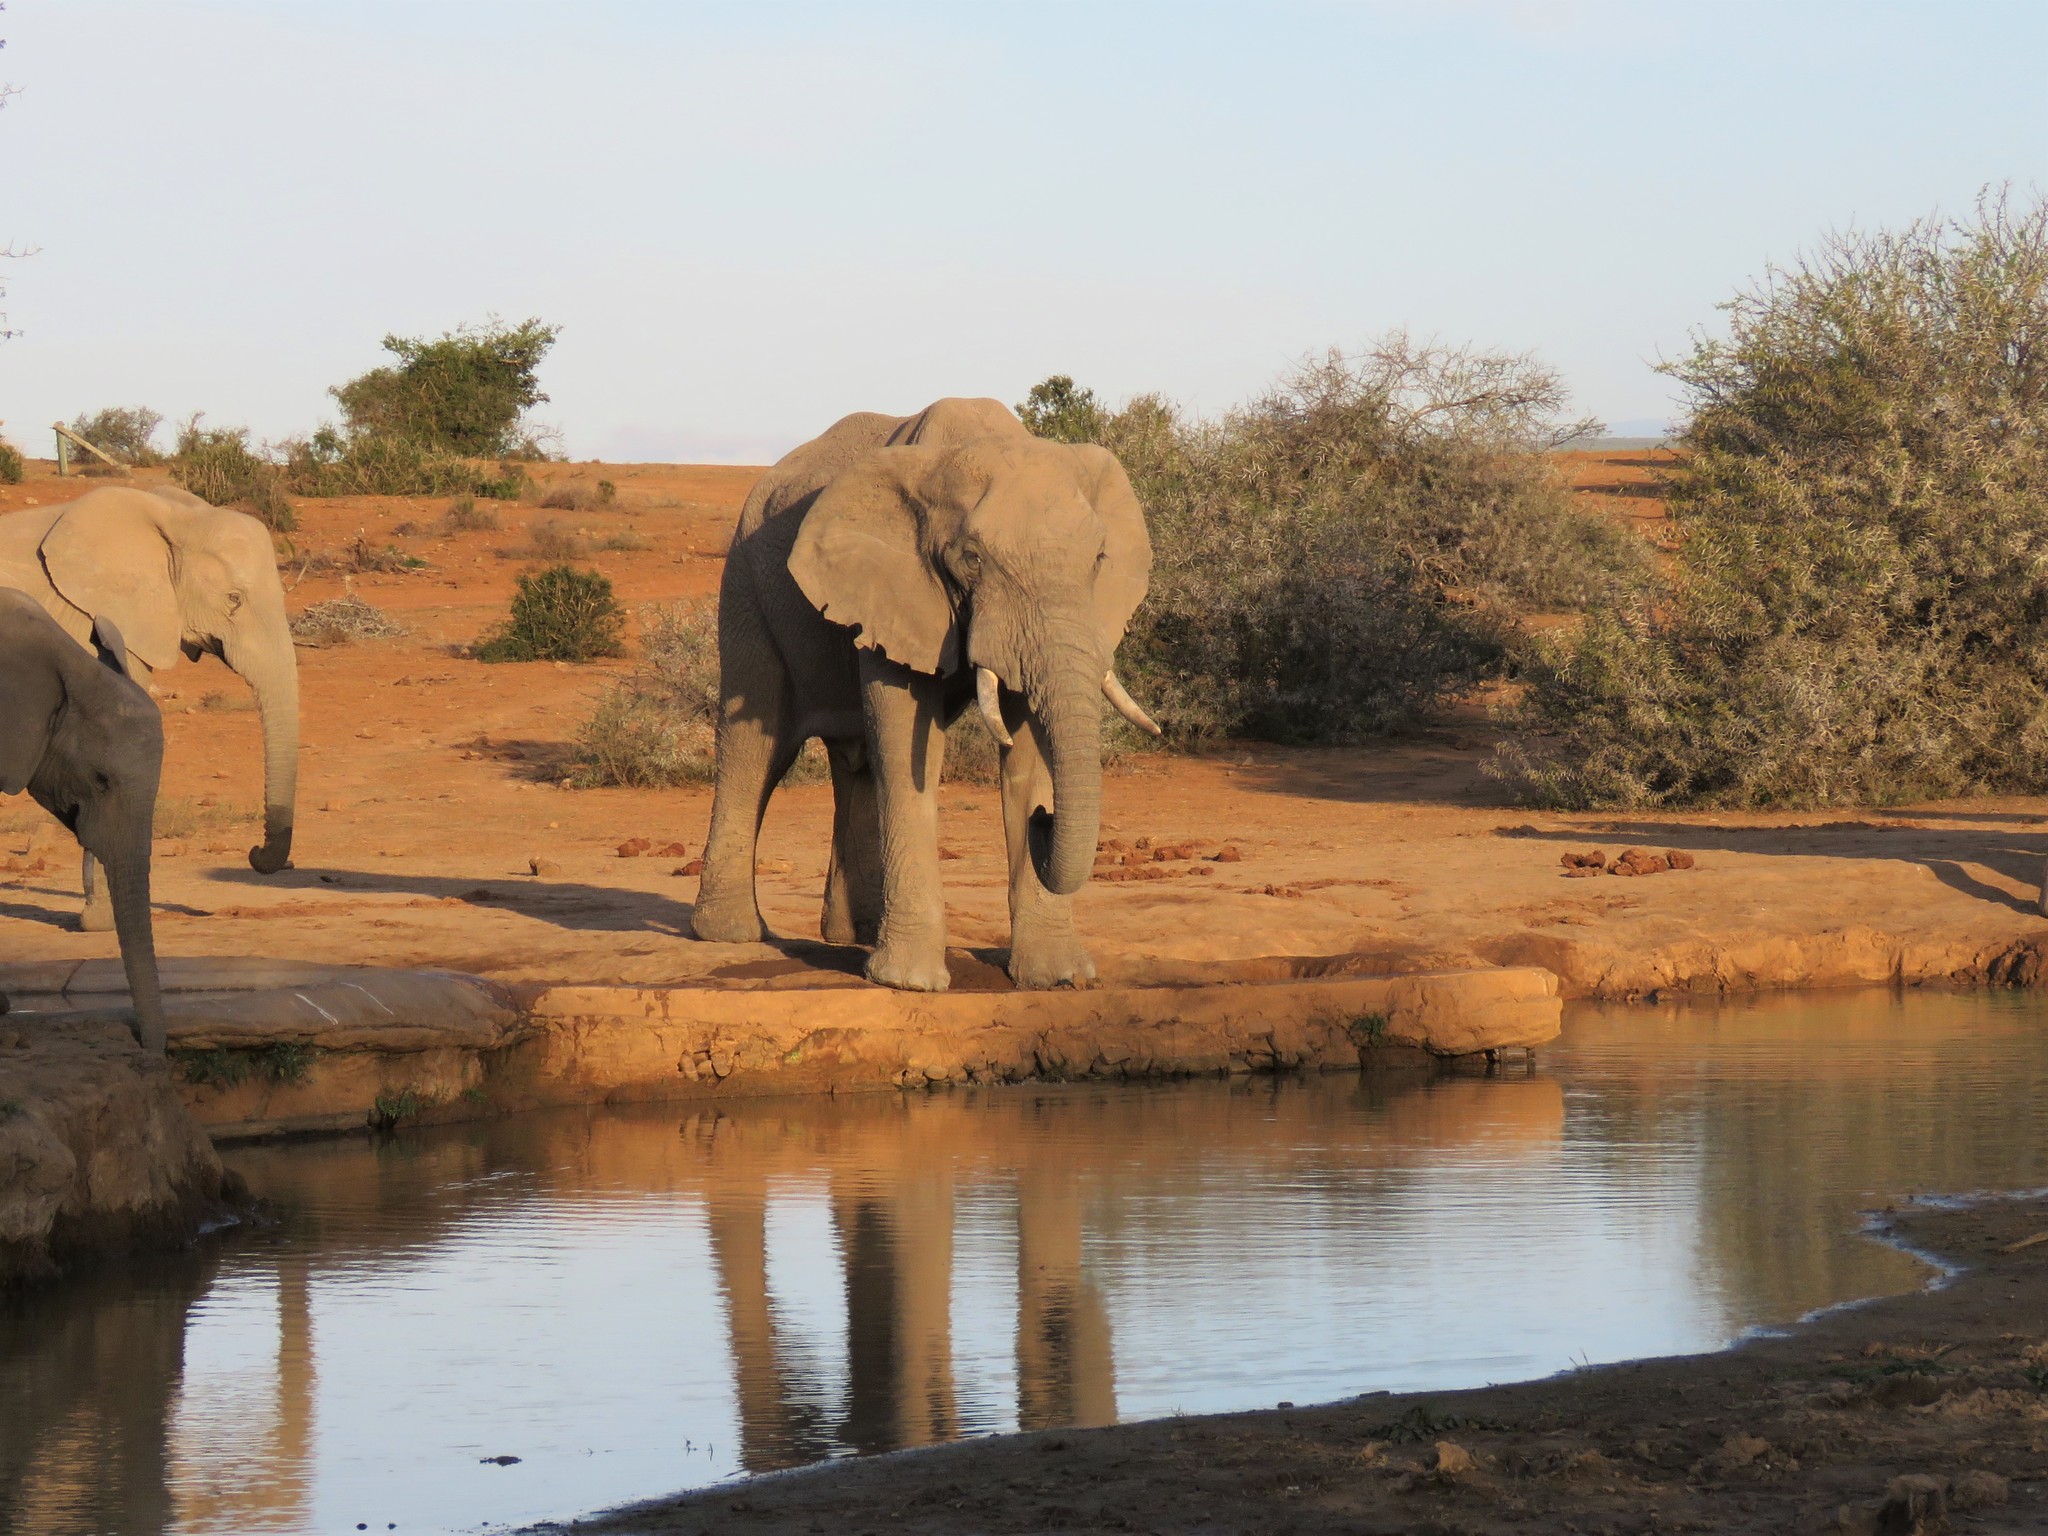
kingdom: Animalia
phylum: Chordata
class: Mammalia
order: Proboscidea
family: Elephantidae
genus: Loxodonta
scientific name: Loxodonta africana
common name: African elephant
